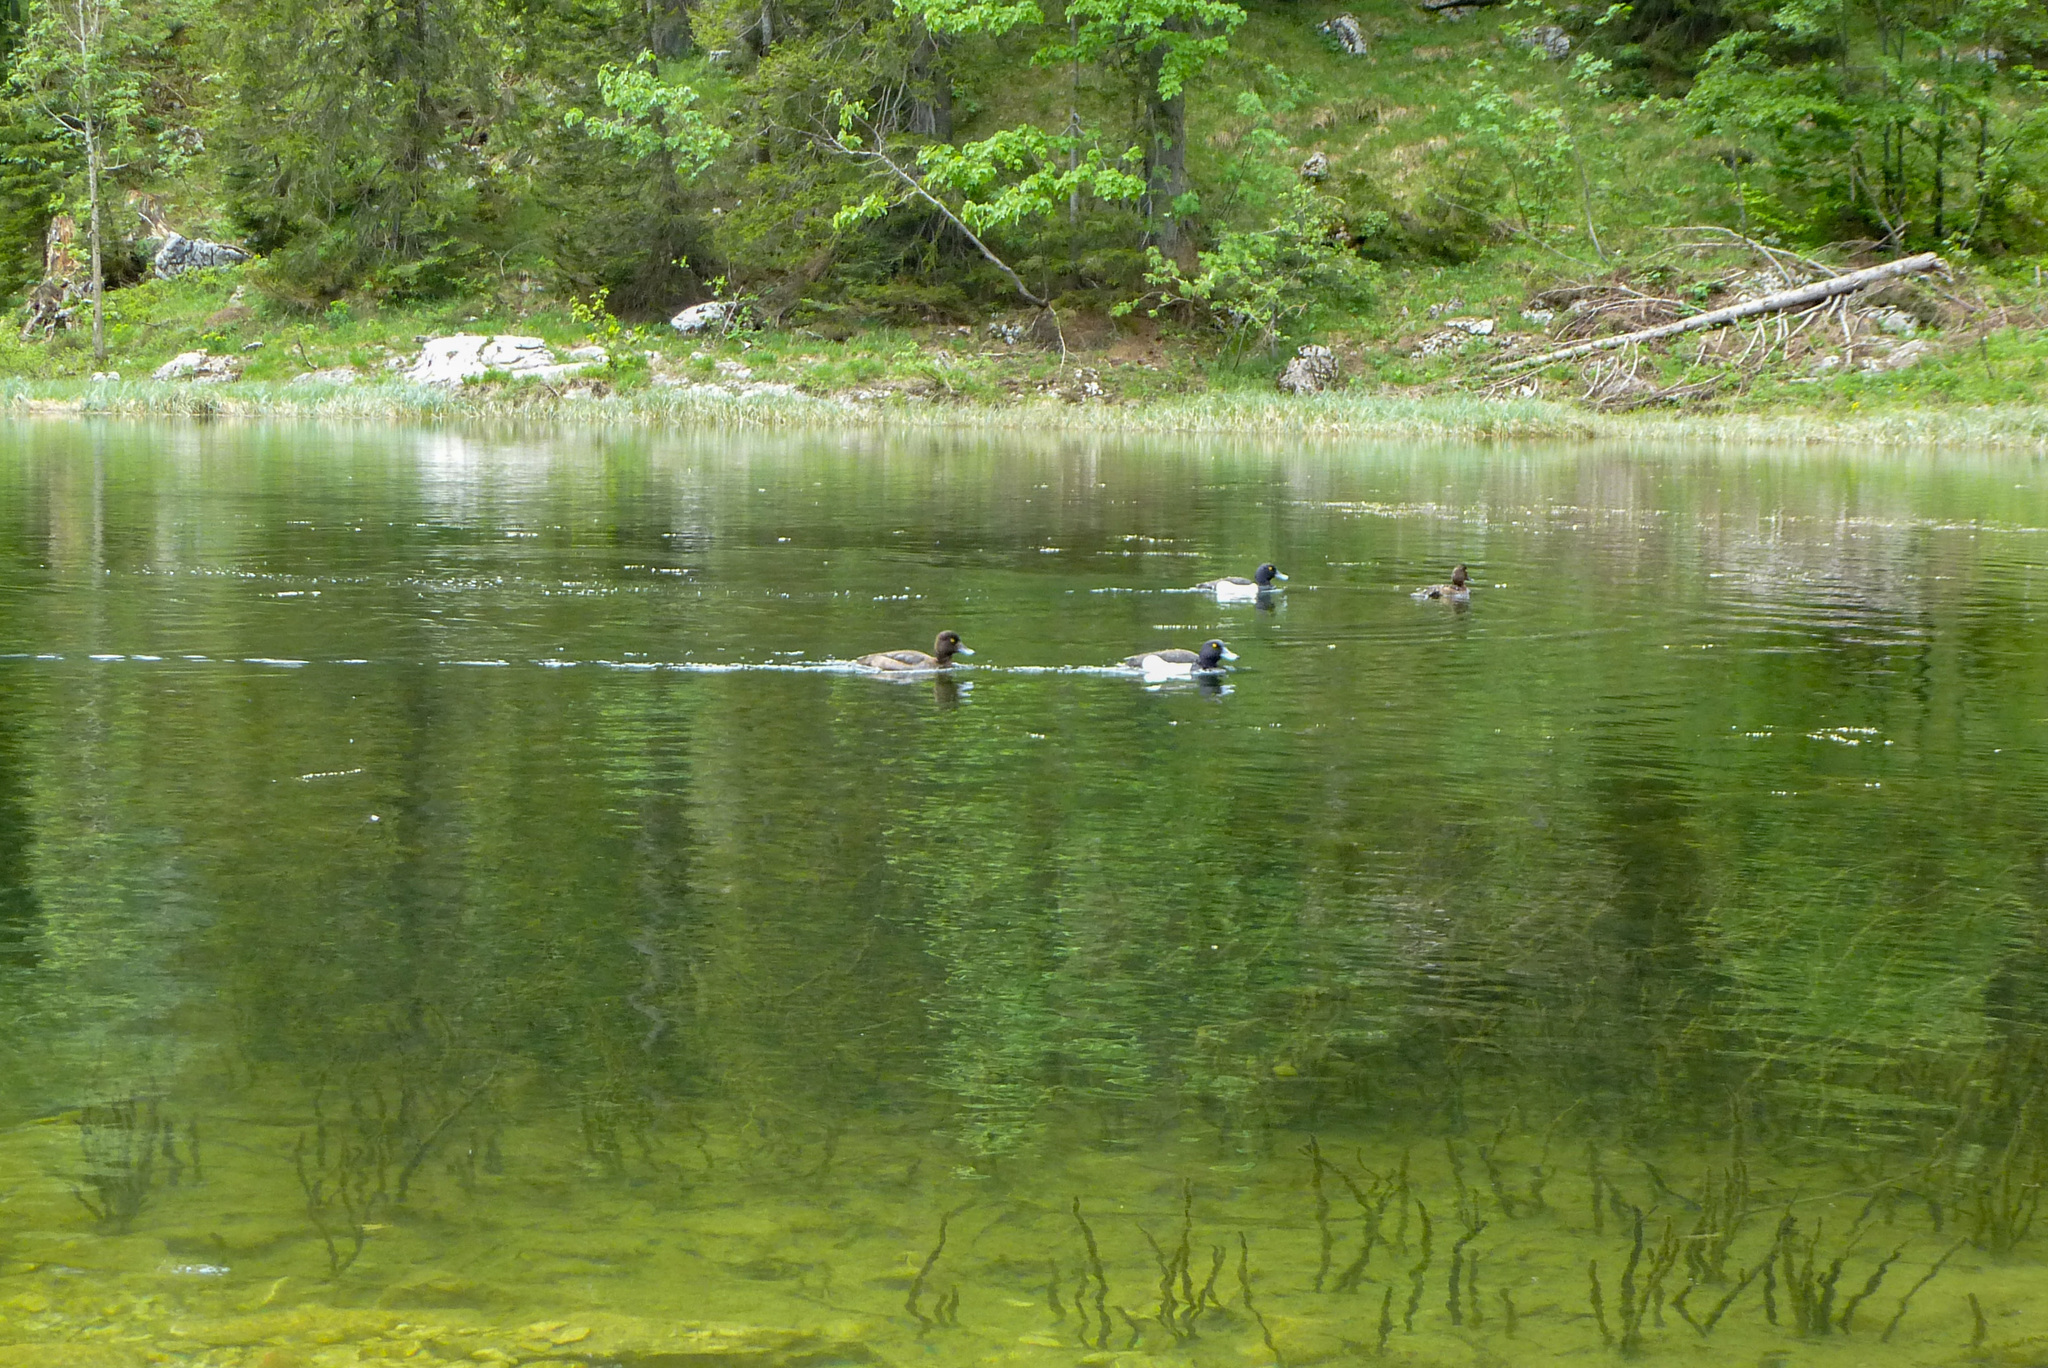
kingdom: Animalia
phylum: Chordata
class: Aves
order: Anseriformes
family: Anatidae
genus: Aythya
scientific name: Aythya fuligula
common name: Tufted duck
